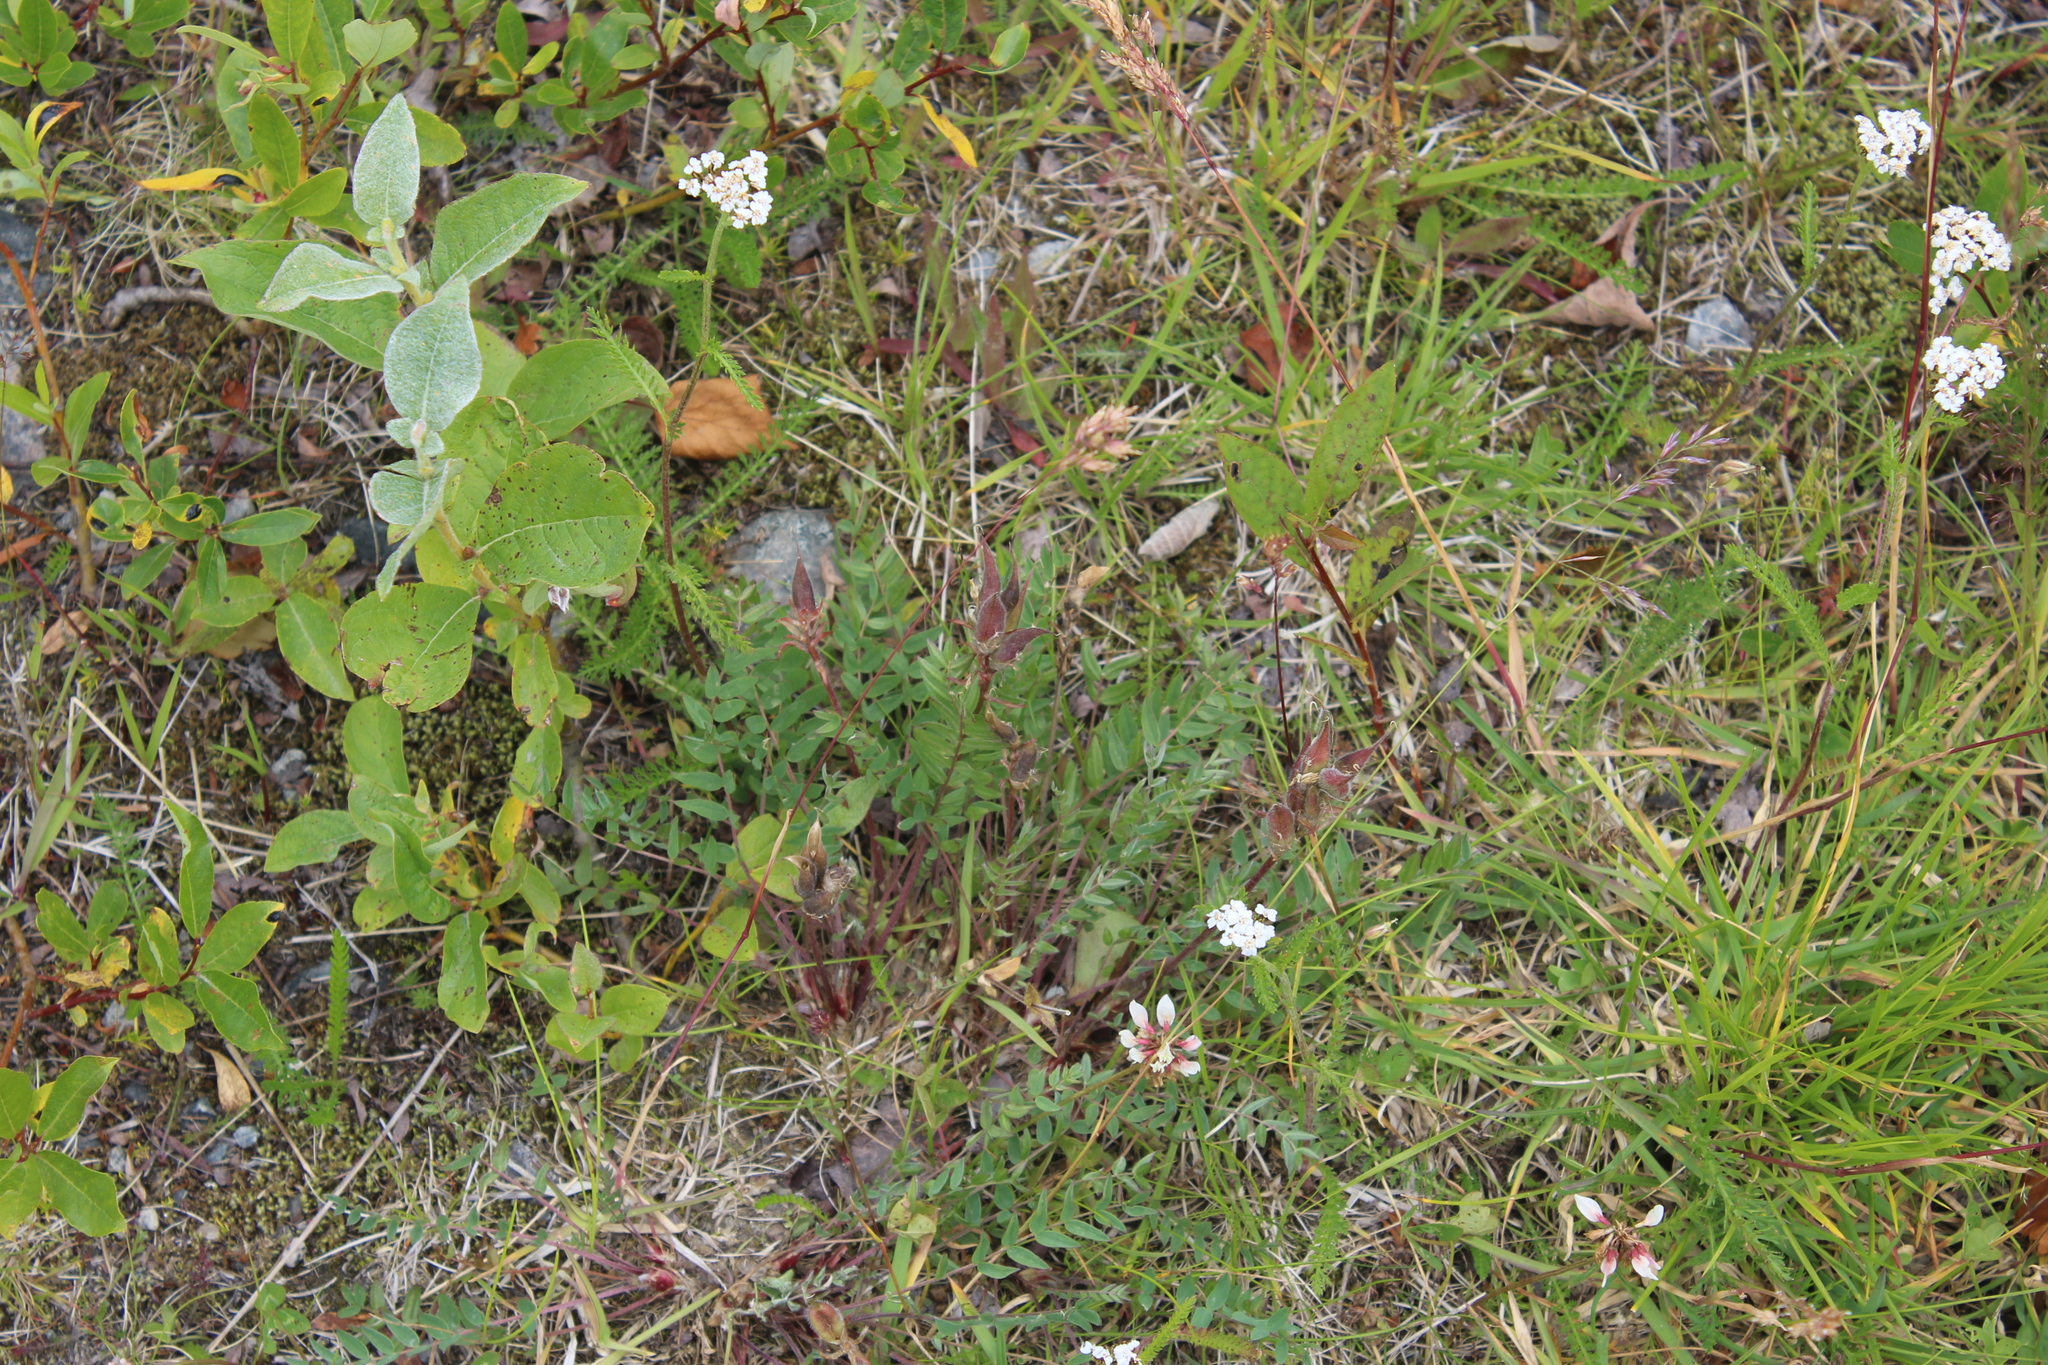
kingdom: Plantae
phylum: Tracheophyta
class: Magnoliopsida
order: Fabales
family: Fabaceae
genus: Oxytropis
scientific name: Oxytropis sordida
